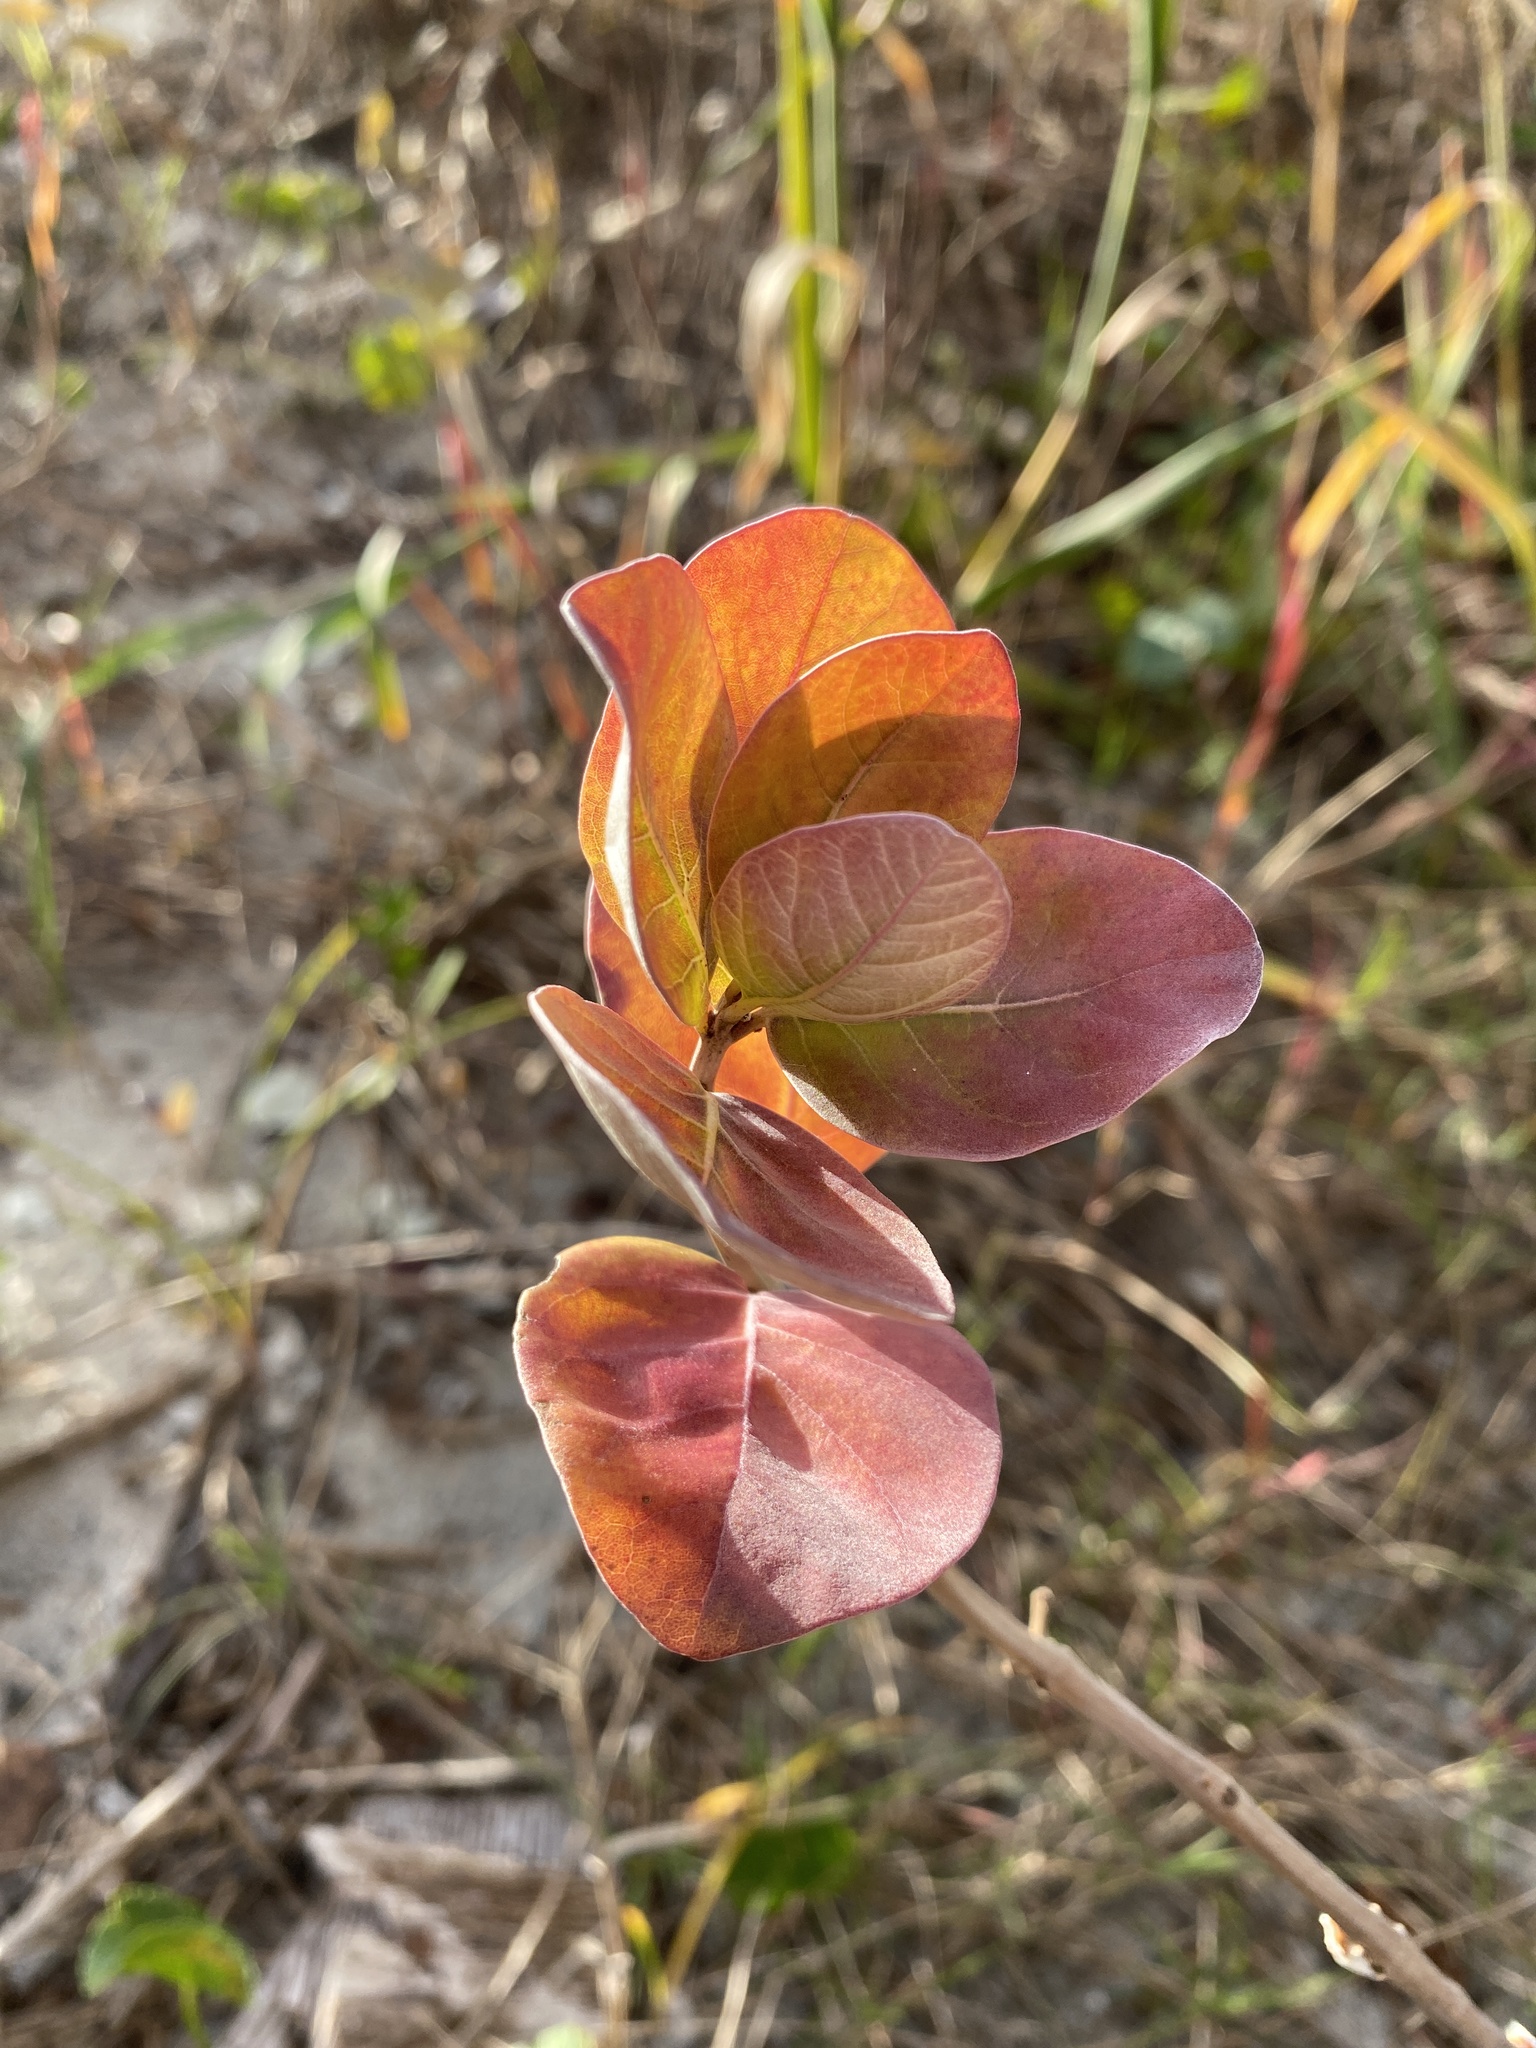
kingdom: Plantae
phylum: Tracheophyta
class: Magnoliopsida
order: Lamiales
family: Lamiaceae
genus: Vitex
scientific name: Vitex rotundifolia
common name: Beach vitex
